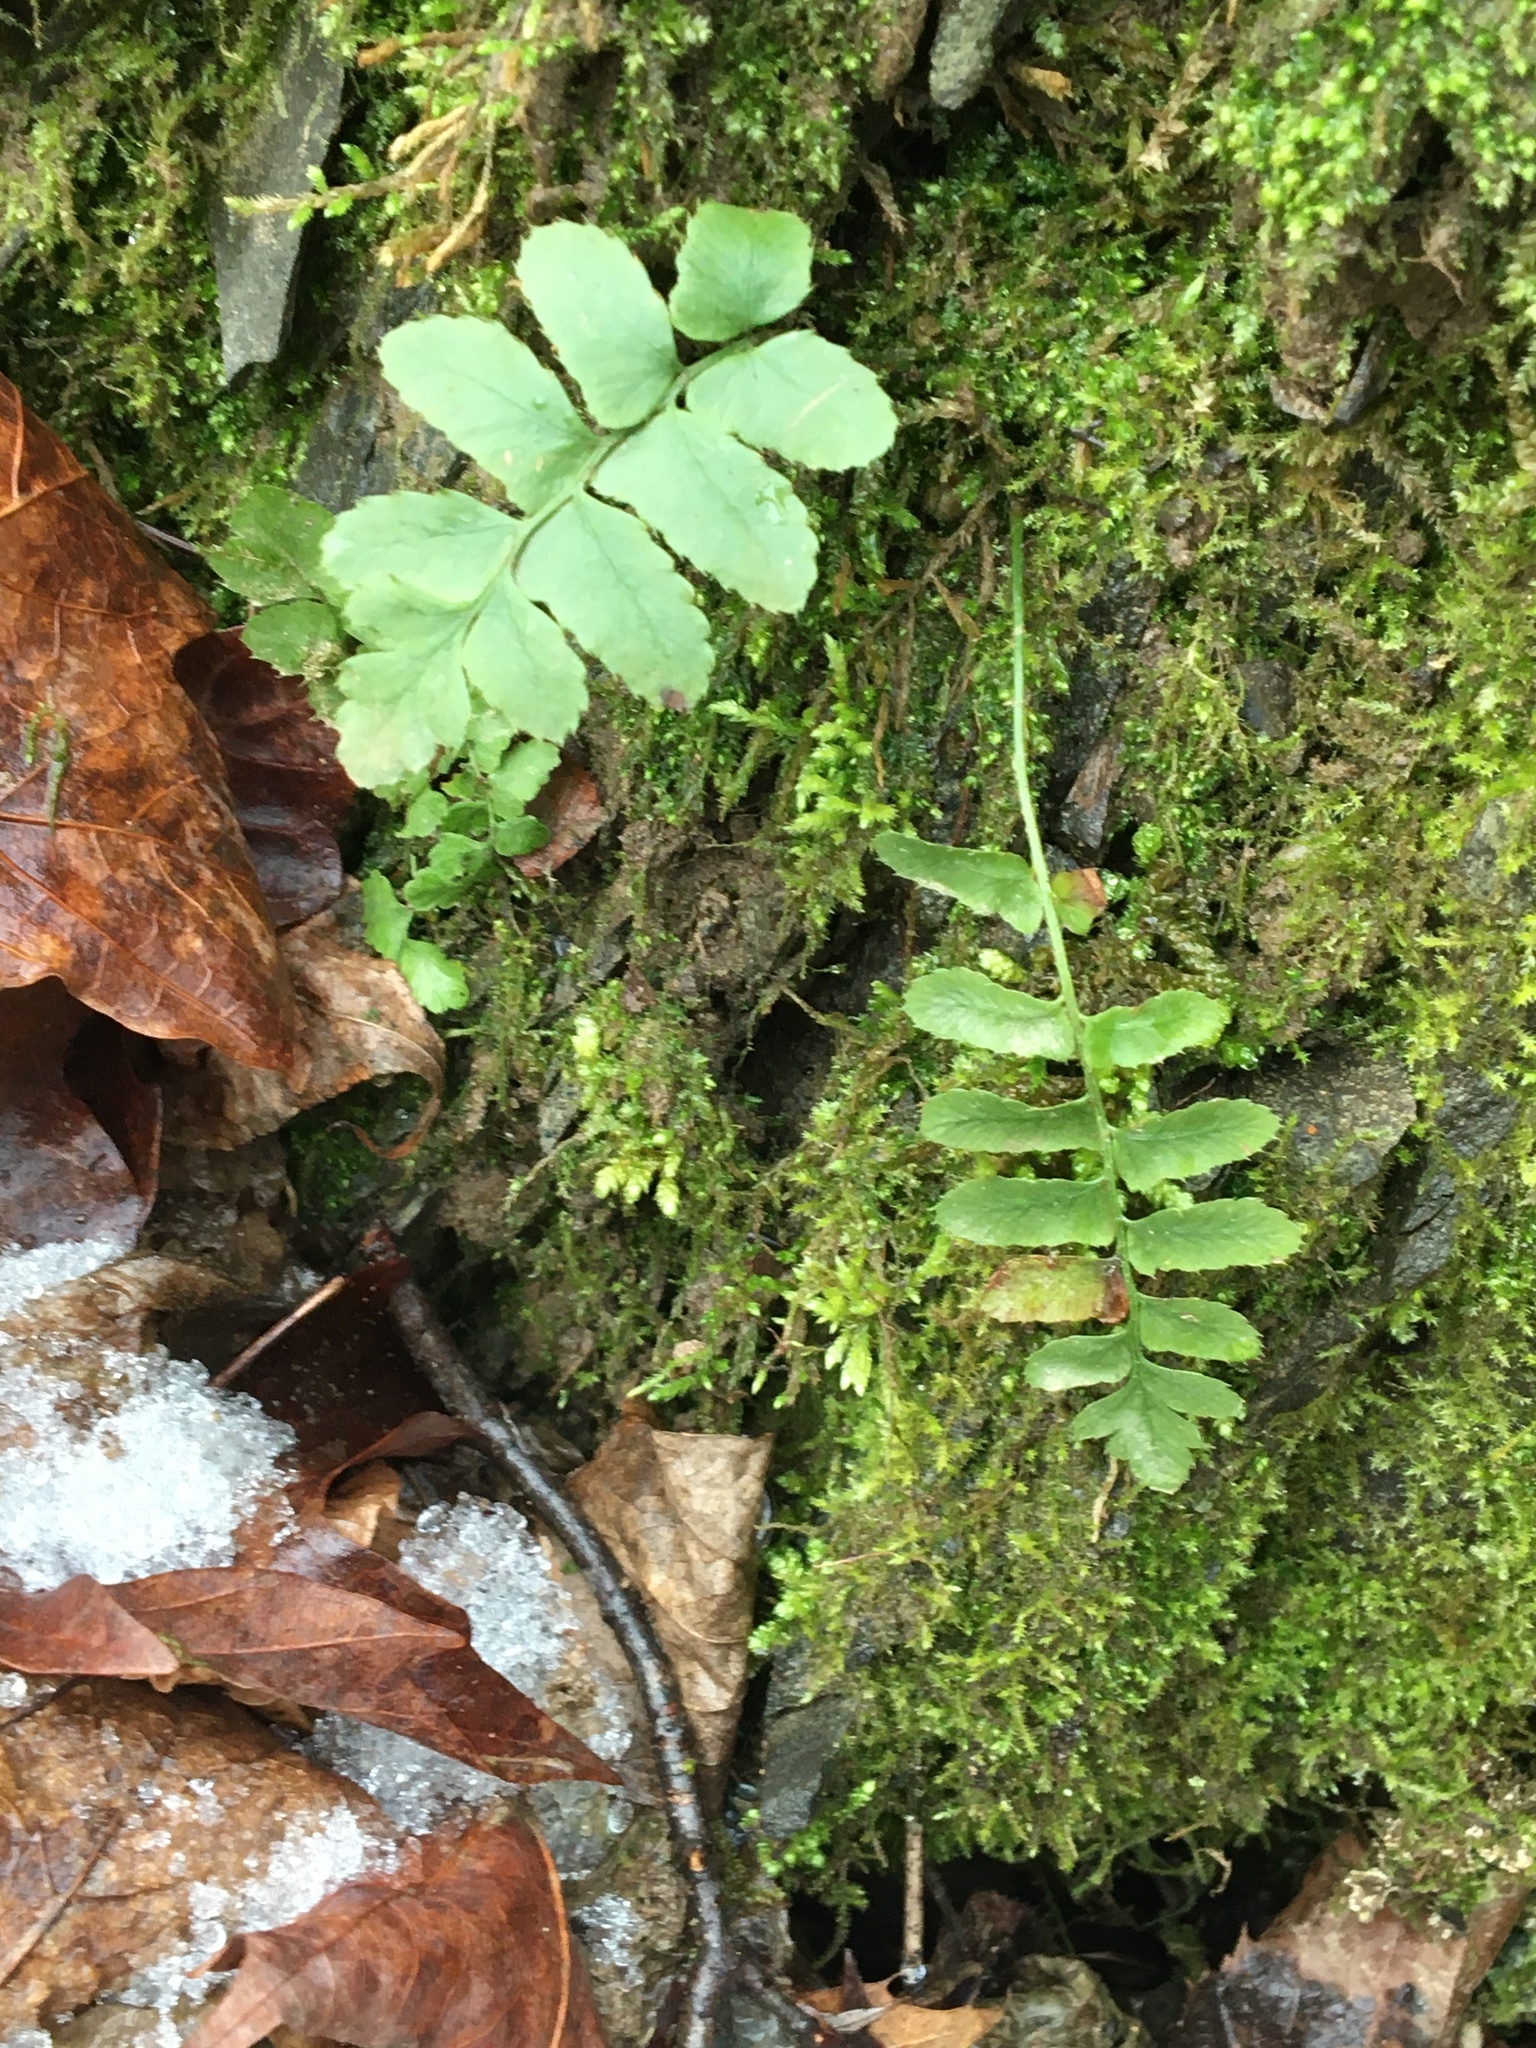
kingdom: Plantae
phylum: Tracheophyta
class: Polypodiopsida
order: Polypodiales
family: Dryopteridaceae
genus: Polystichum
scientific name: Polystichum acrostichoides
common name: Christmas fern
